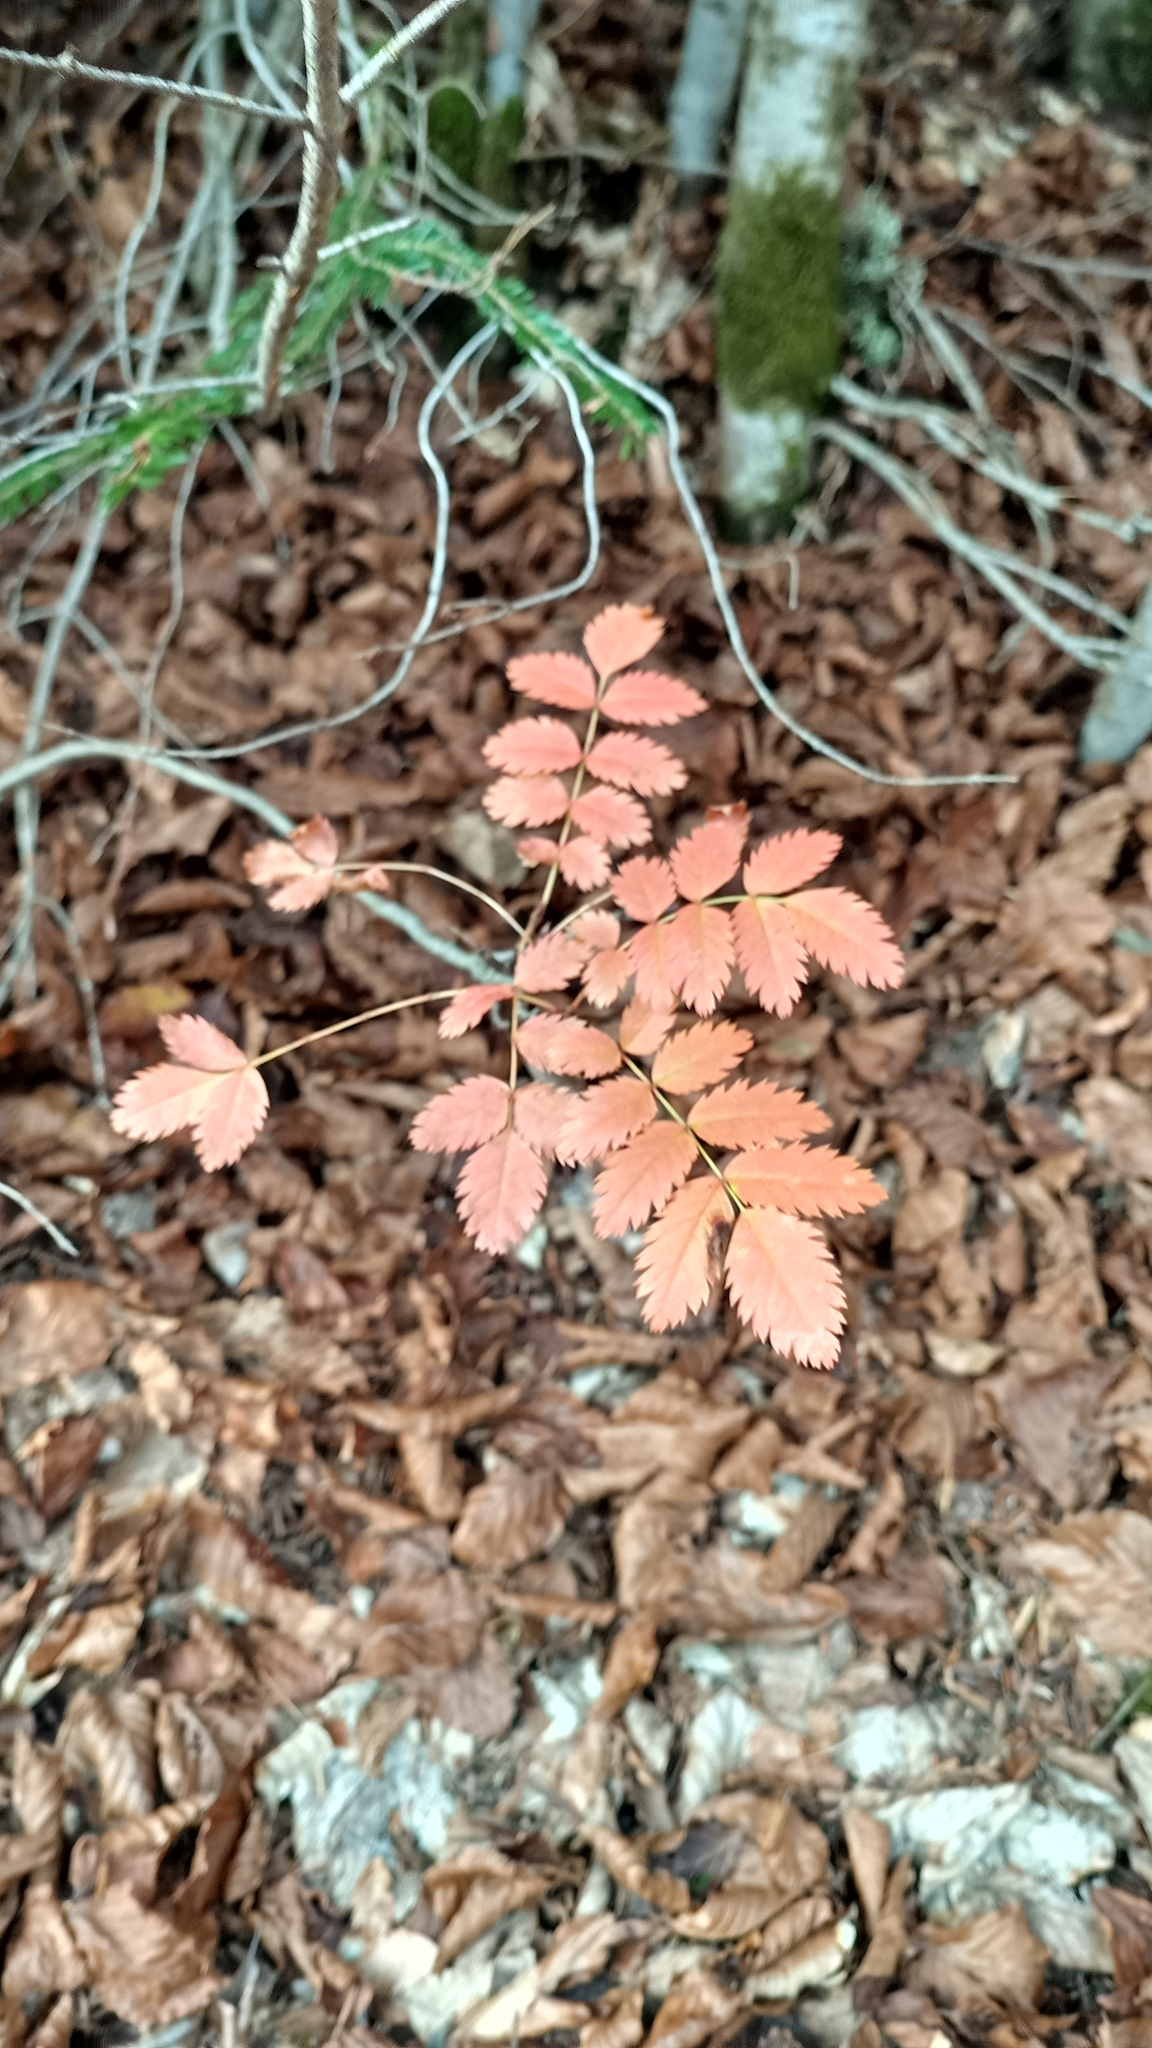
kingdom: Plantae
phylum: Tracheophyta
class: Magnoliopsida
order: Rosales
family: Rosaceae
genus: Sorbus
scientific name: Sorbus aucuparia
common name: Rowan
